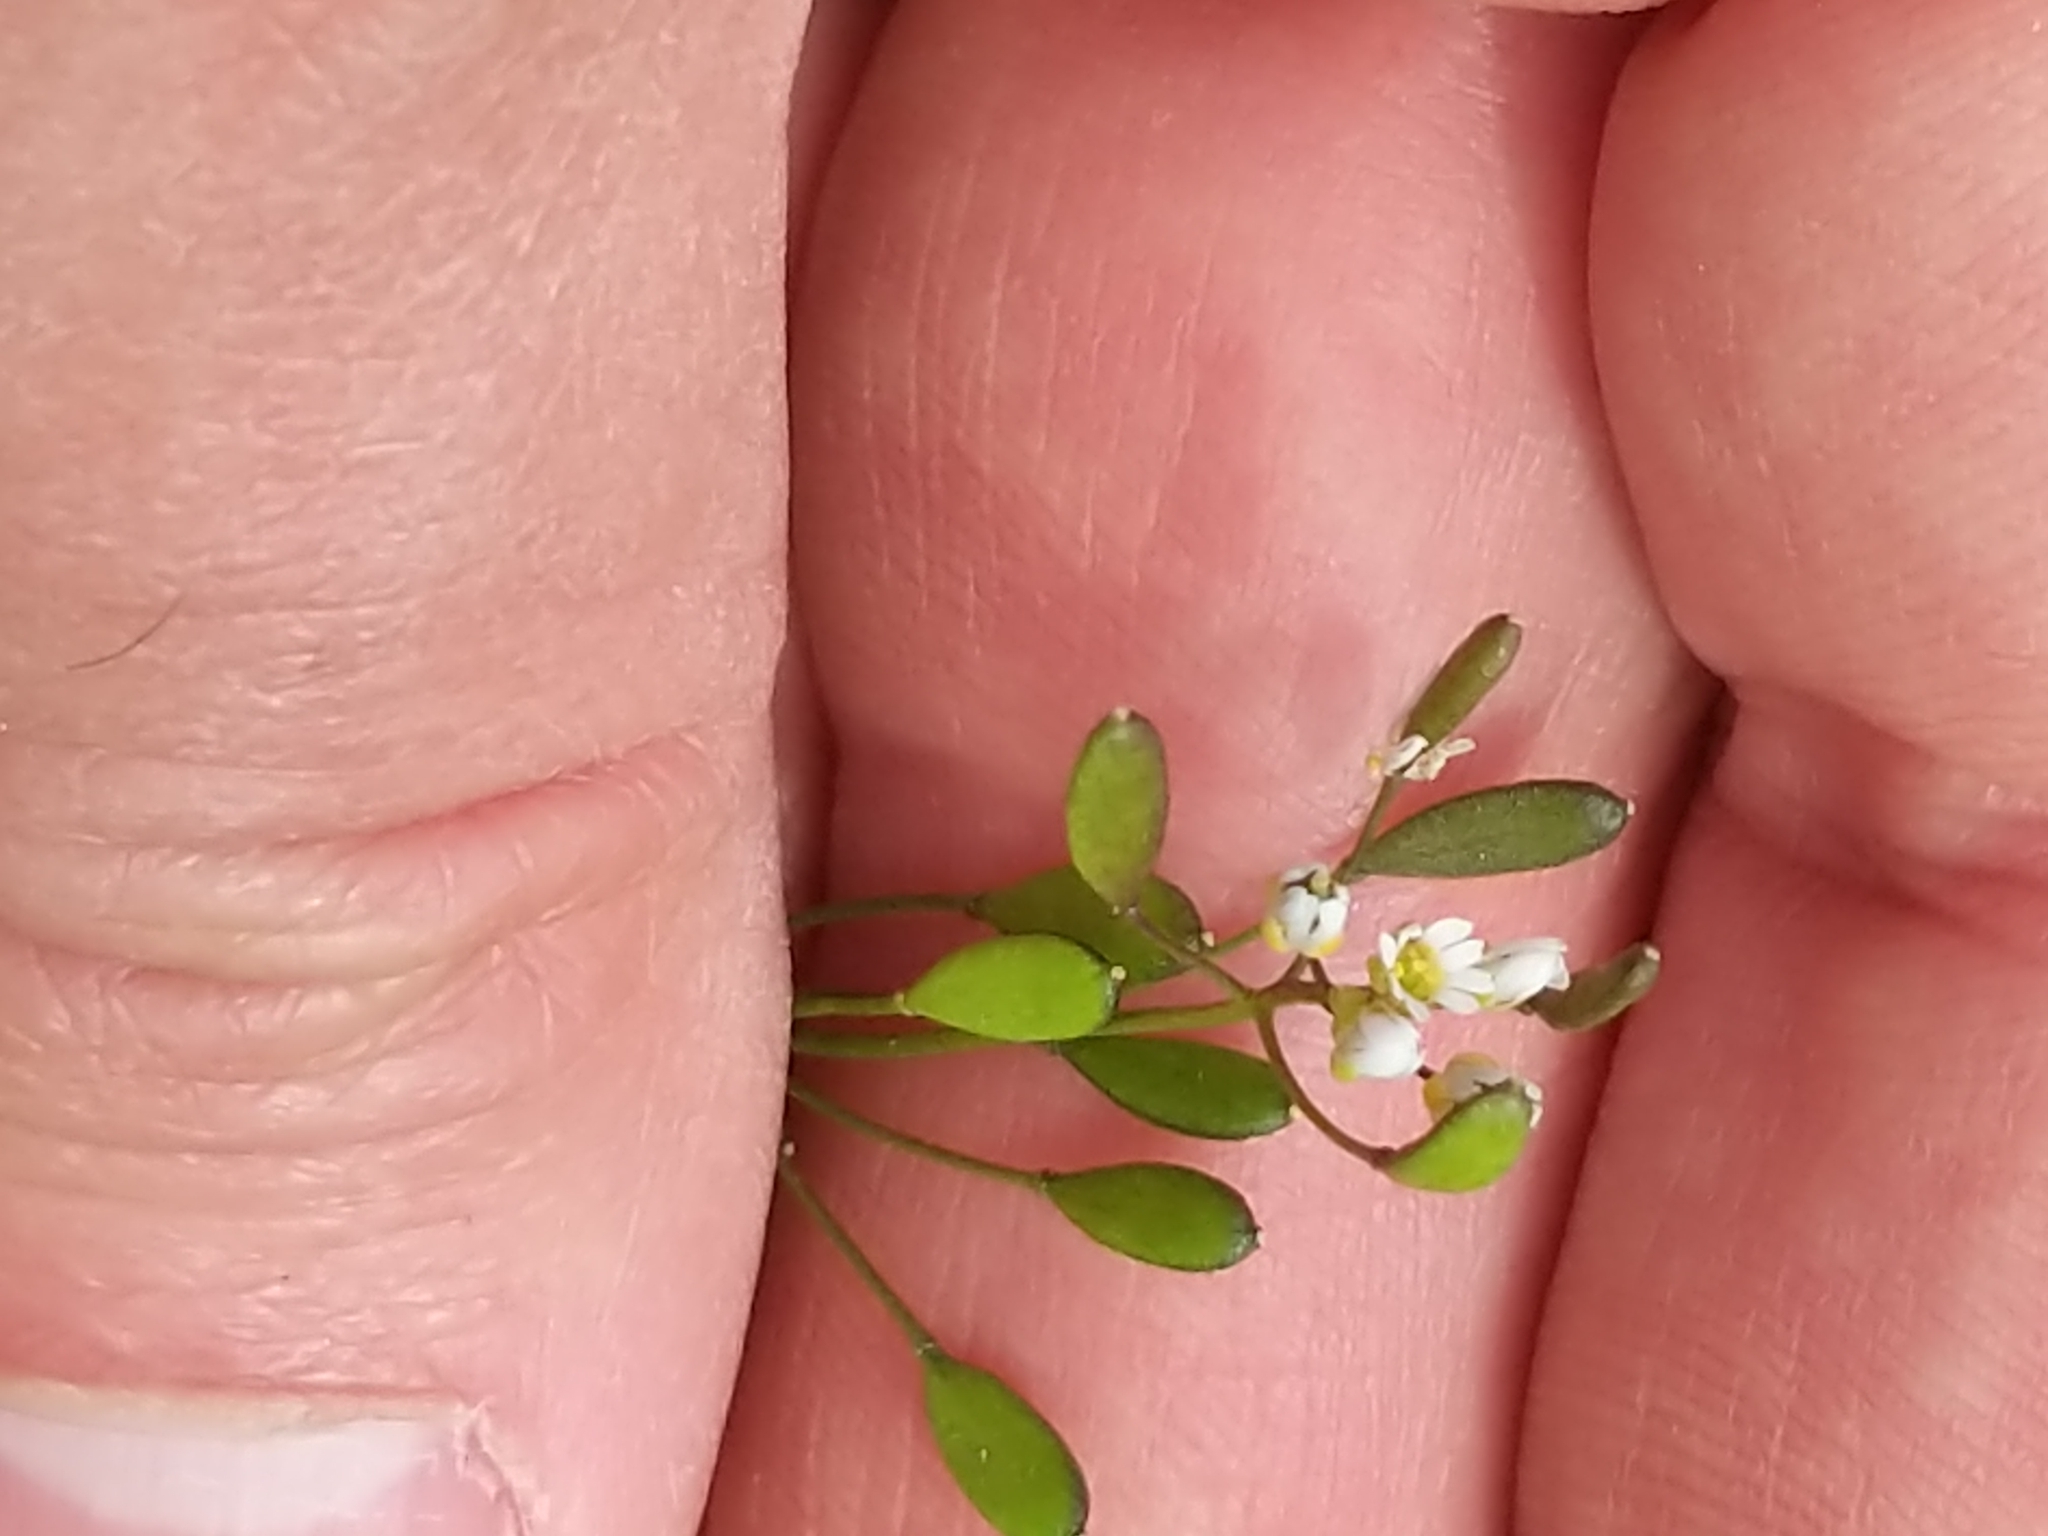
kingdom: Plantae
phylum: Tracheophyta
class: Magnoliopsida
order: Brassicales
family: Brassicaceae
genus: Draba
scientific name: Draba verna
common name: Spring draba
